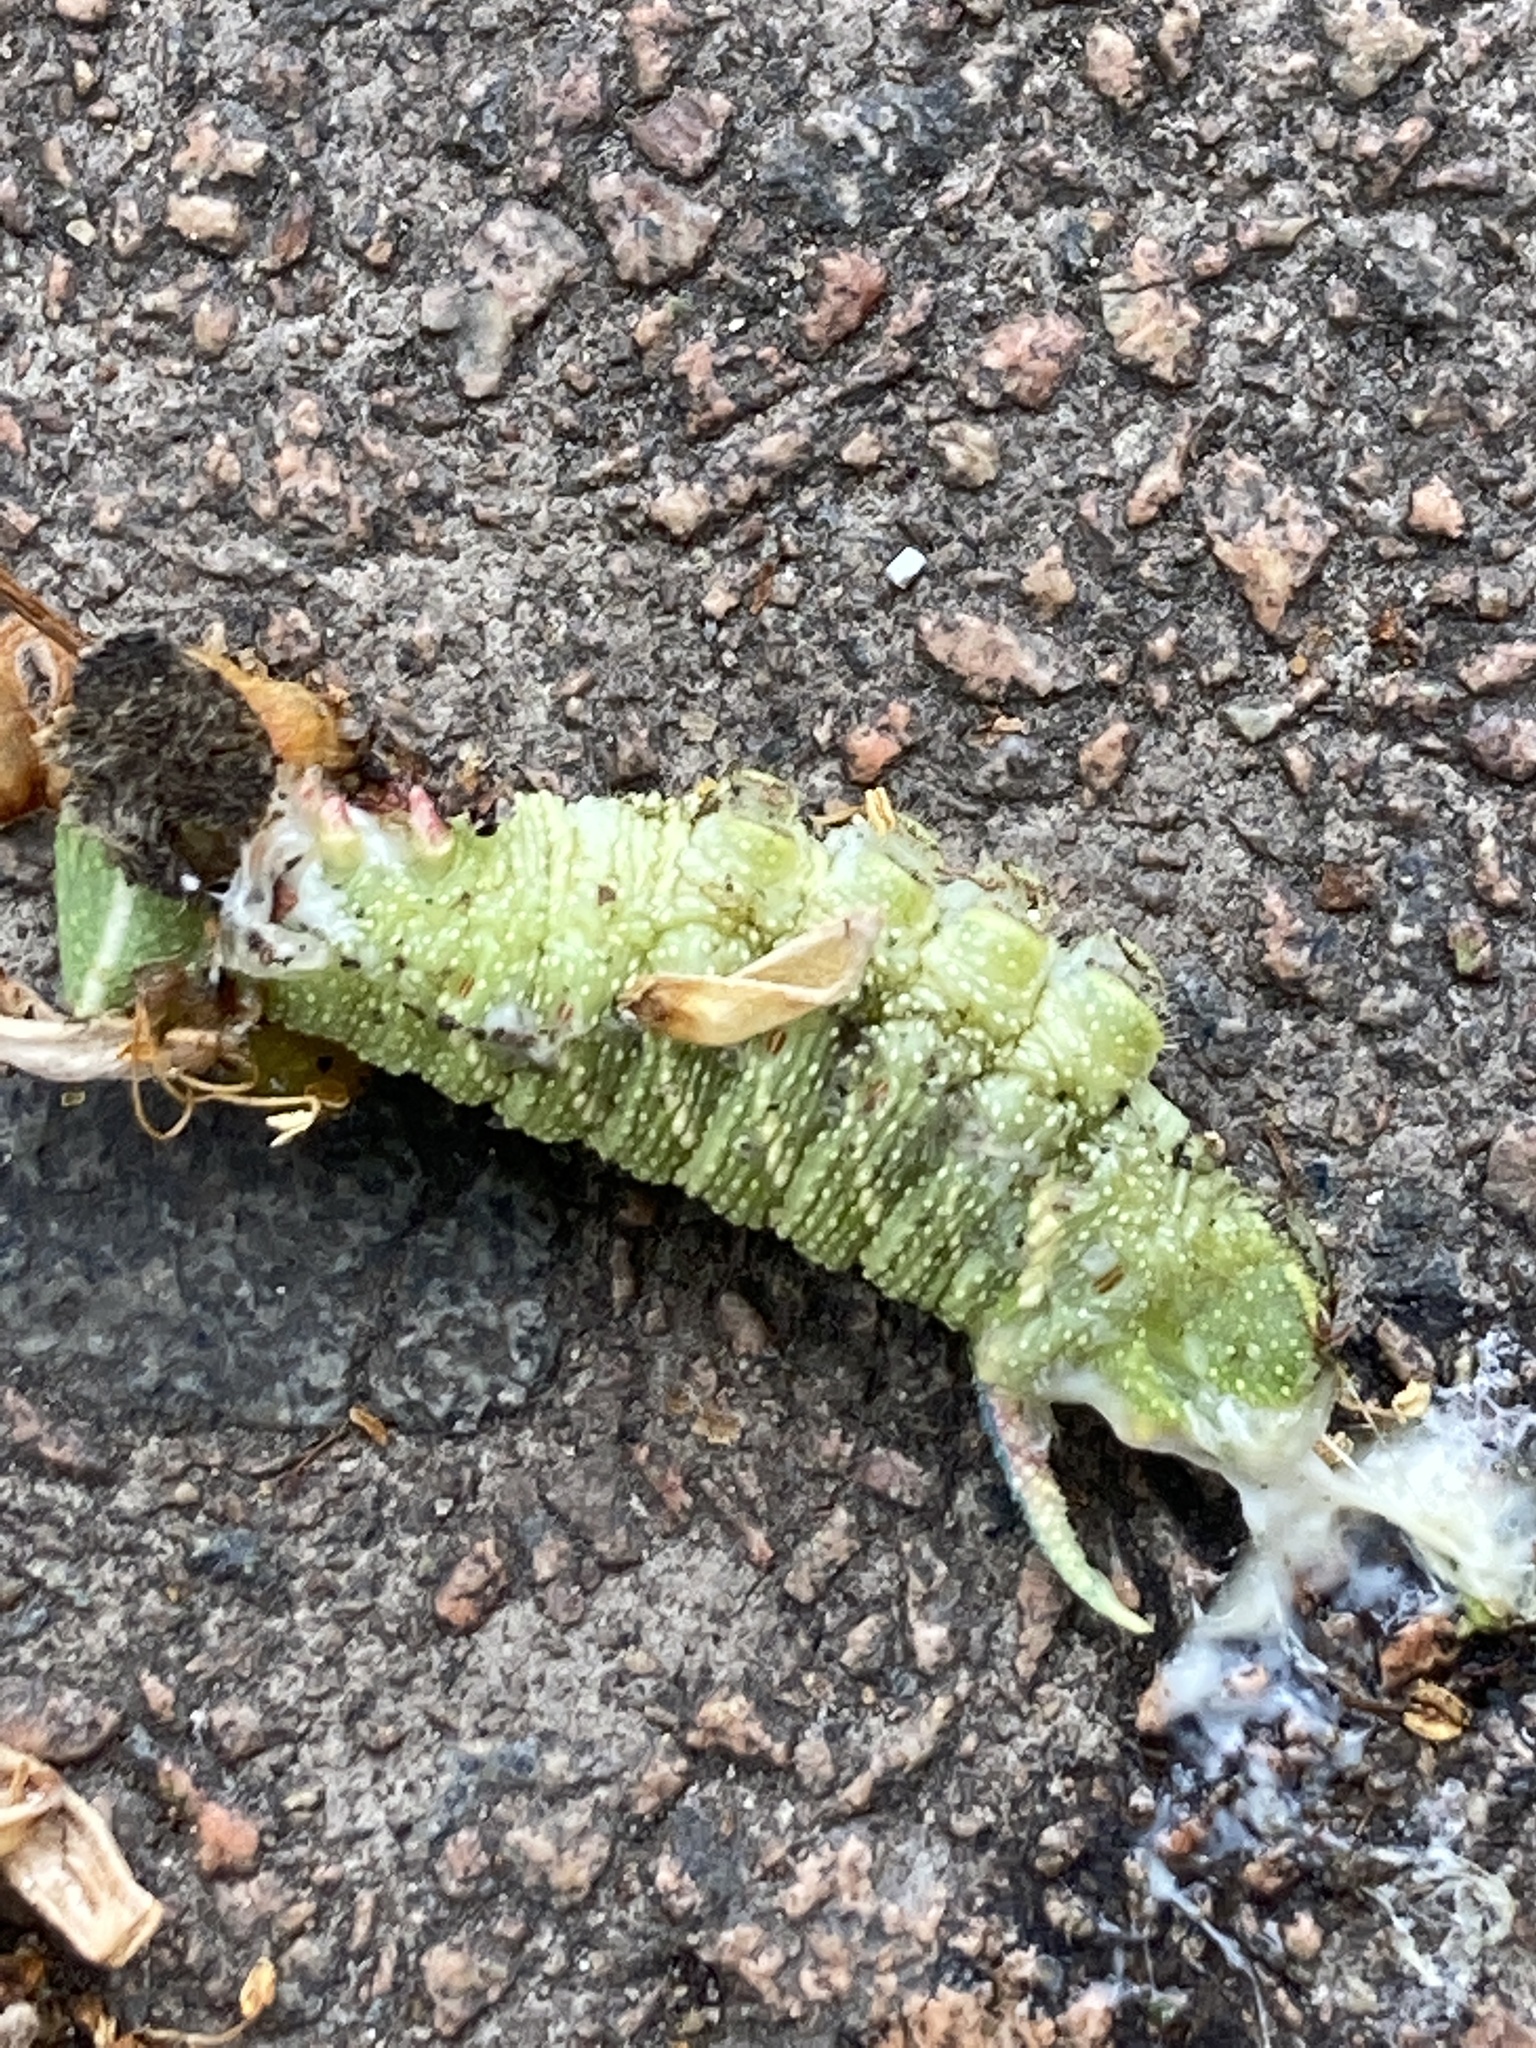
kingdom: Animalia
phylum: Arthropoda
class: Insecta
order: Lepidoptera
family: Sphingidae
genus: Mimas
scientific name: Mimas tiliae
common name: Lime hawk-moth
